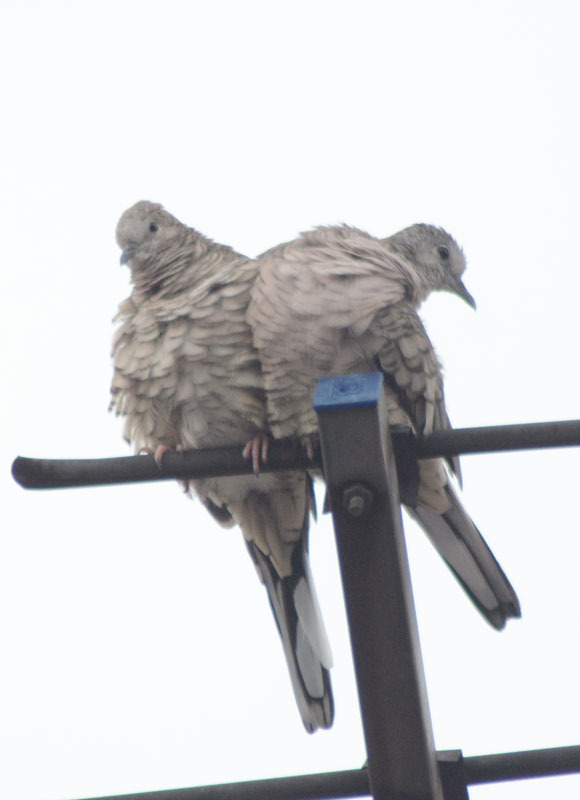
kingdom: Animalia
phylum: Chordata
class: Aves
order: Columbiformes
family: Columbidae
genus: Columbina
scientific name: Columbina inca
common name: Inca dove
